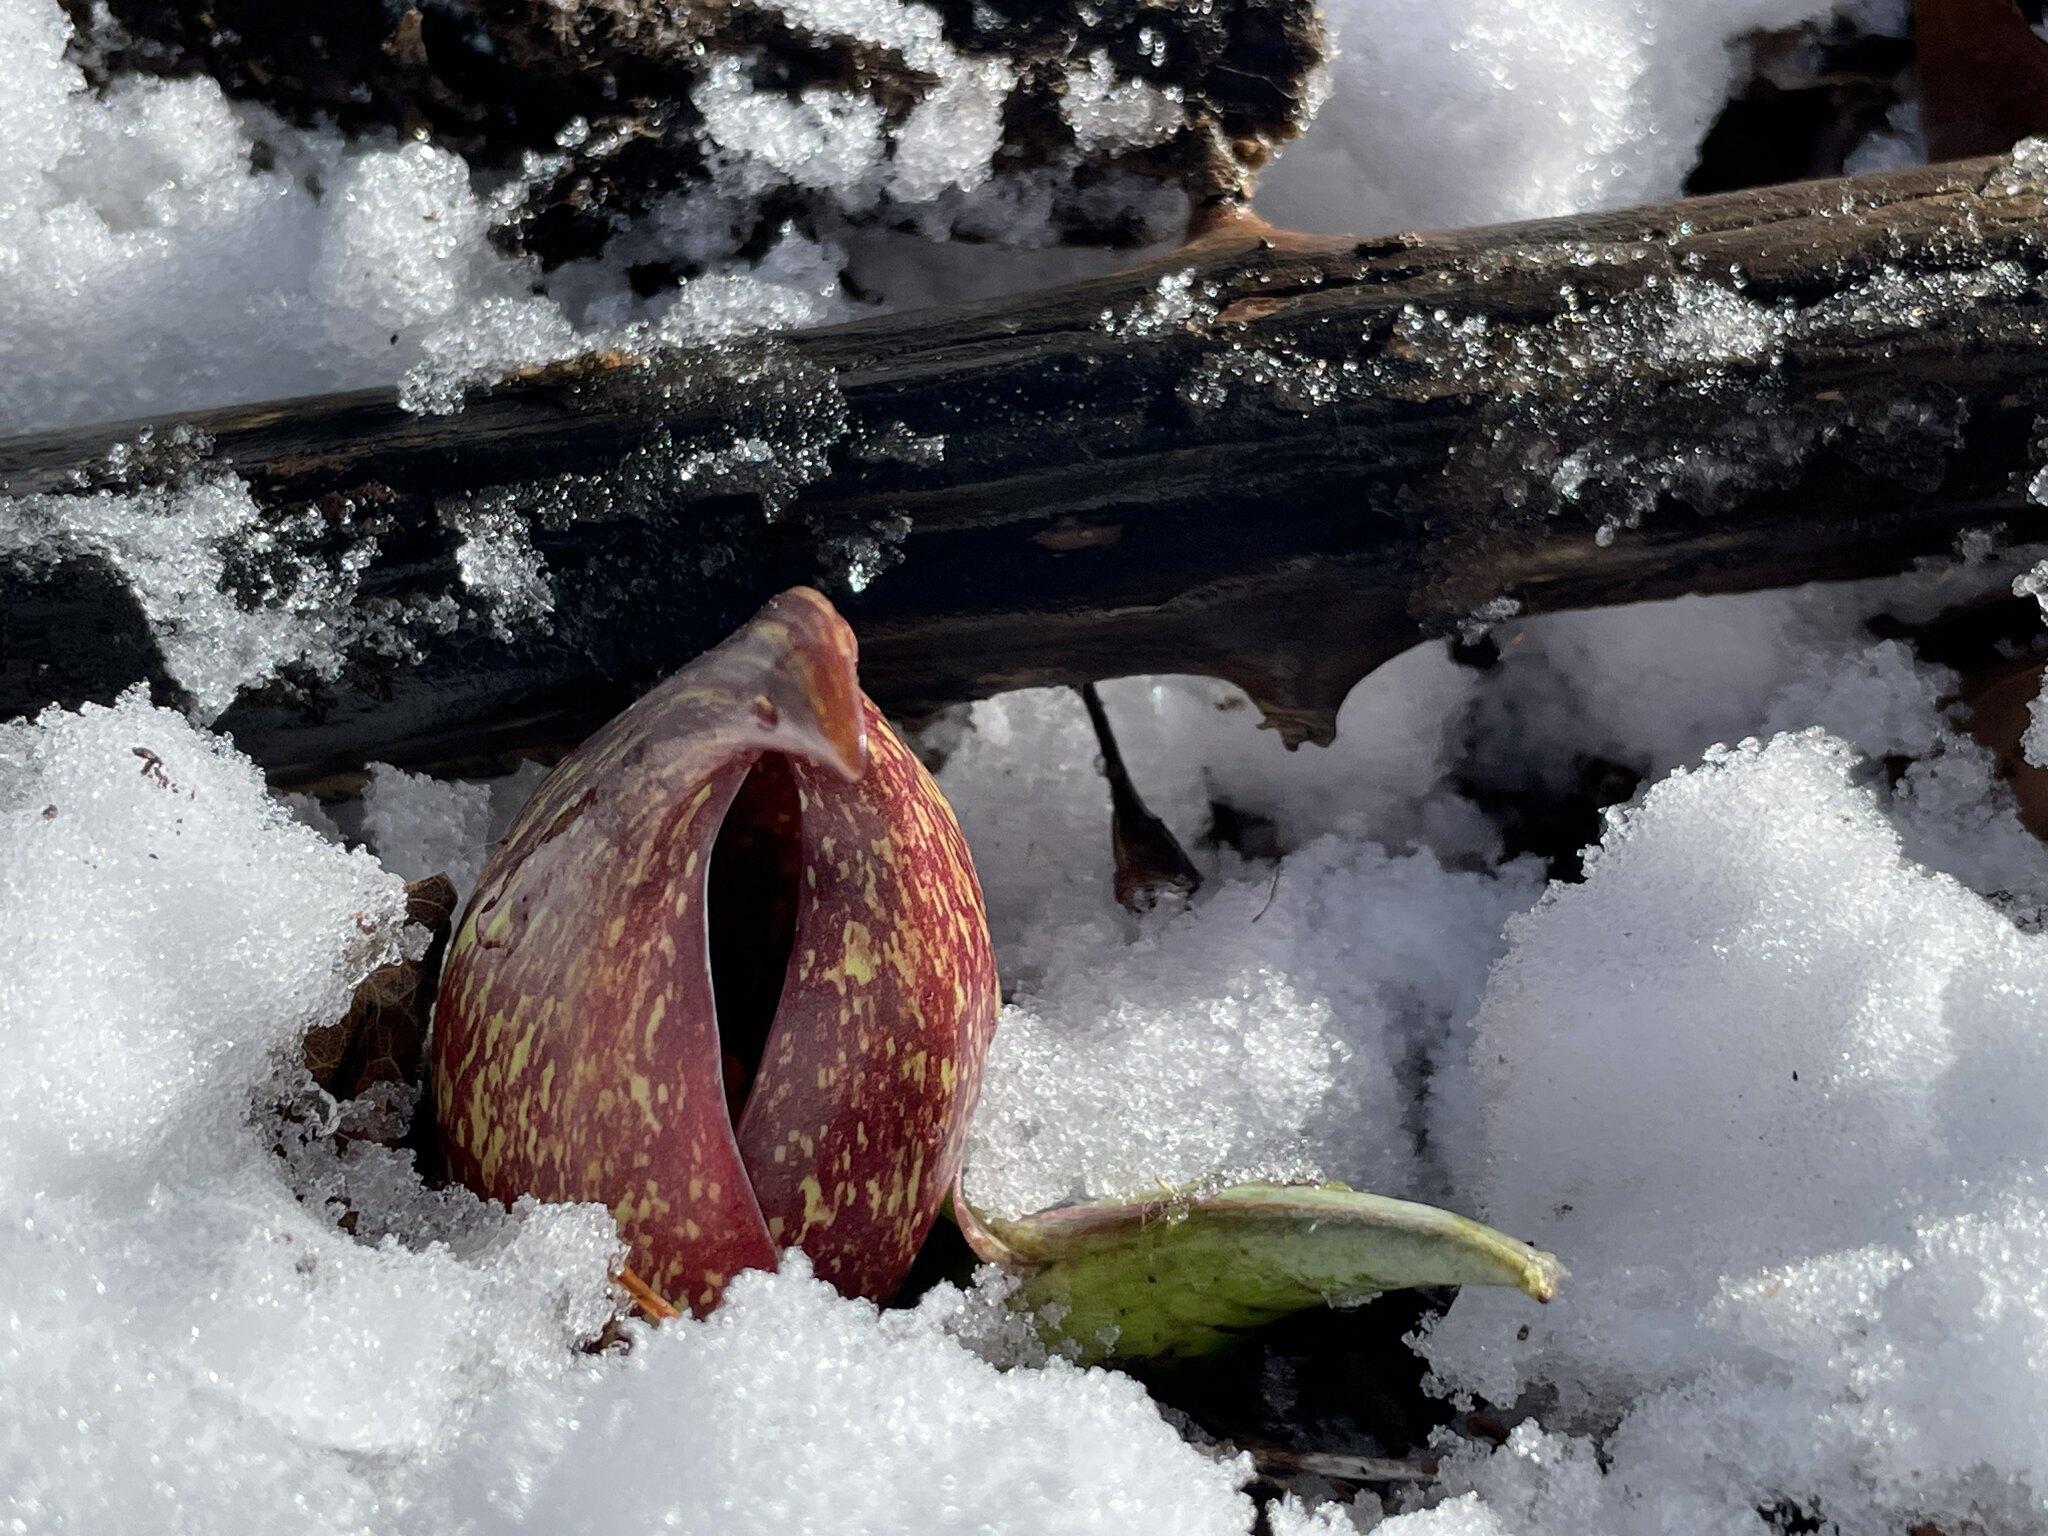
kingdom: Plantae
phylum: Tracheophyta
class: Liliopsida
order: Alismatales
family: Araceae
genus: Symplocarpus
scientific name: Symplocarpus foetidus
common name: Eastern skunk cabbage
